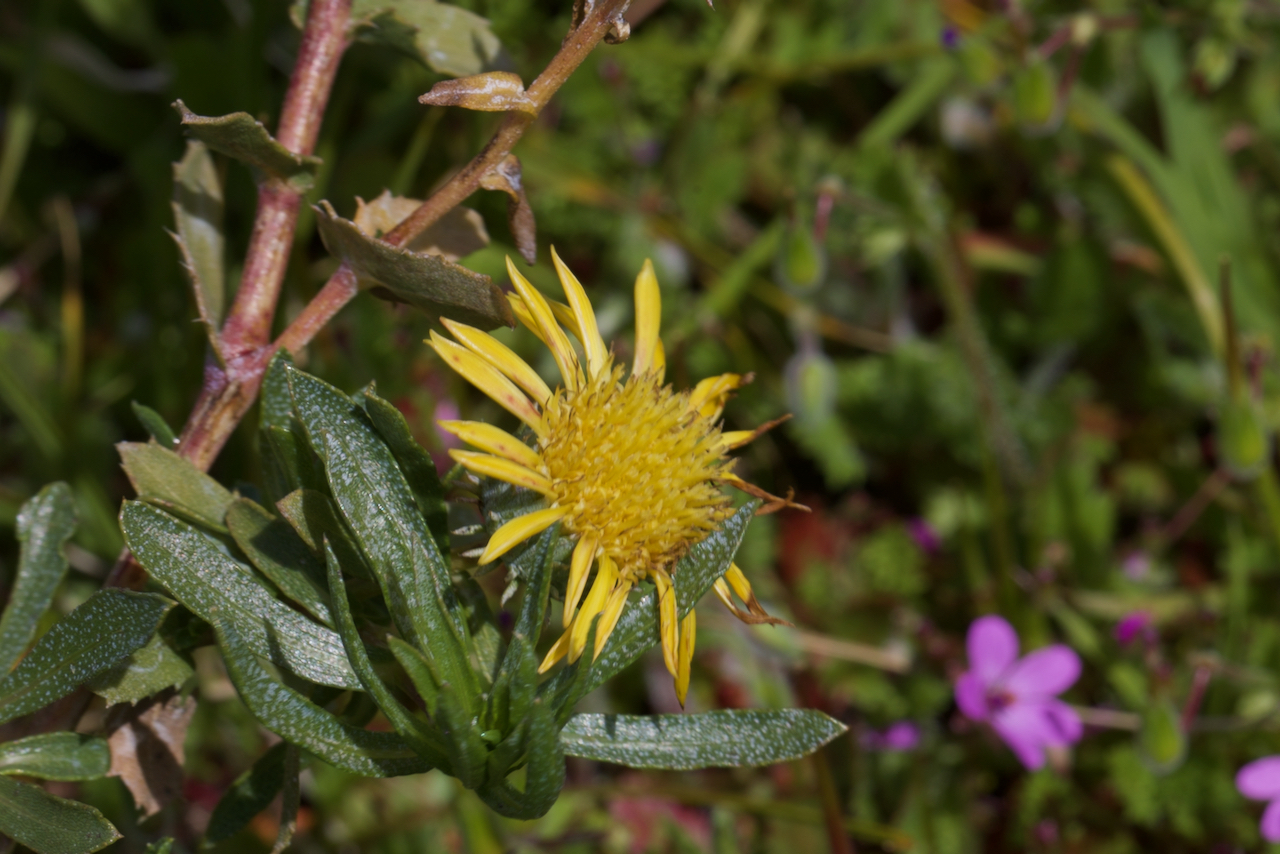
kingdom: Plantae
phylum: Tracheophyta
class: Magnoliopsida
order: Asterales
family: Asteraceae
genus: Grindelia
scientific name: Grindelia hirsutula
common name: Hairy gumweed
